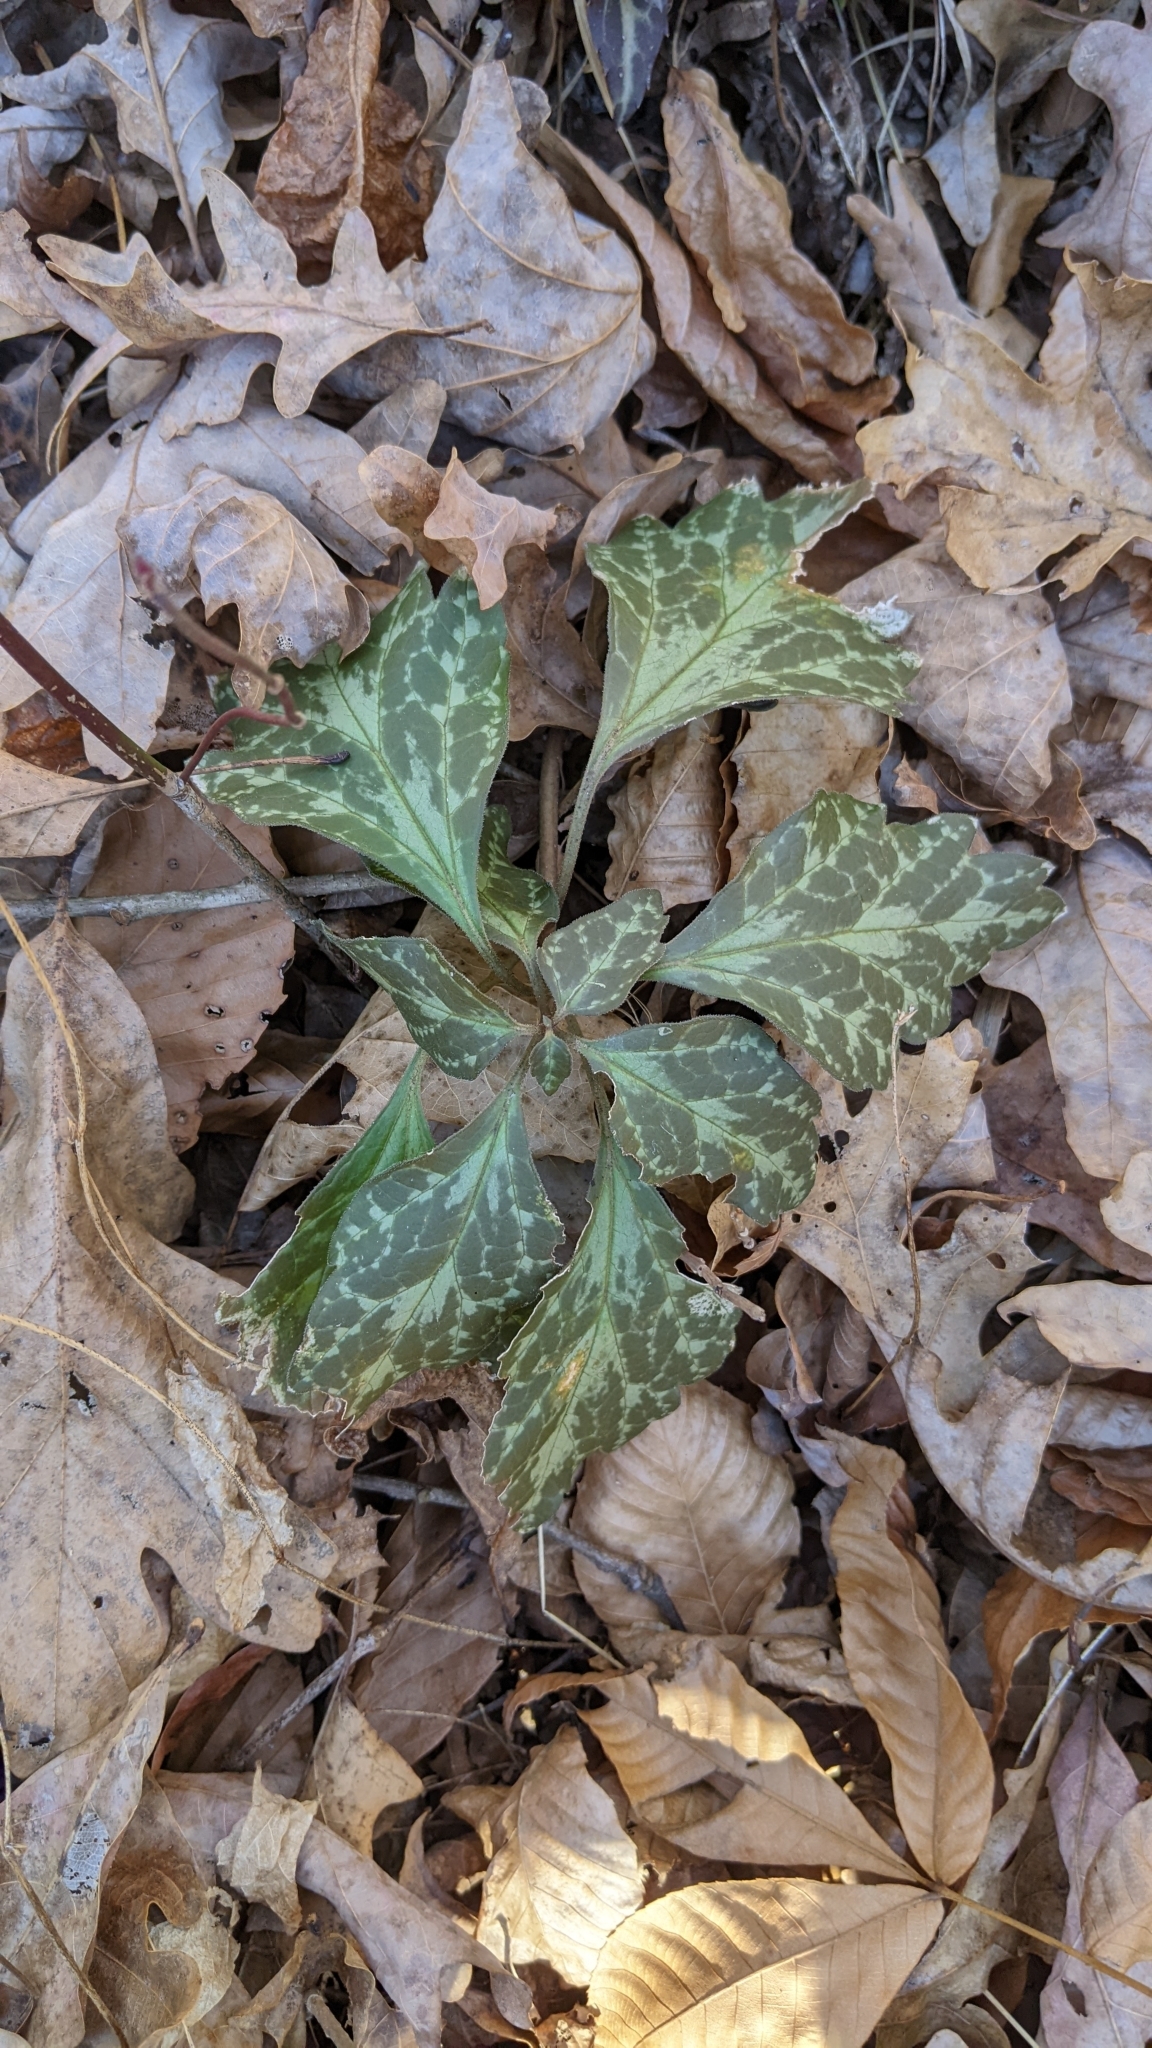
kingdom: Plantae
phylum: Tracheophyta
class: Magnoliopsida
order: Buxales
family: Buxaceae
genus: Pachysandra
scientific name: Pachysandra procumbens
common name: Mountain-spurge
